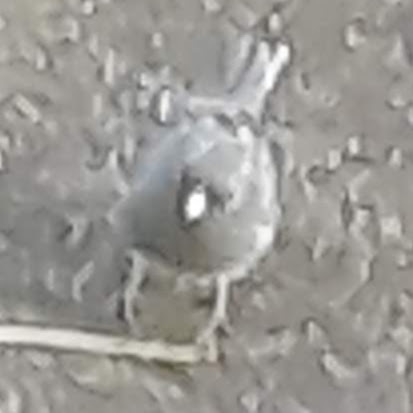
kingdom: Animalia
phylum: Chordata
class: Aves
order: Passeriformes
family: Passerellidae
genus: Junco
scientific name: Junco hyemalis
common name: Dark-eyed junco
